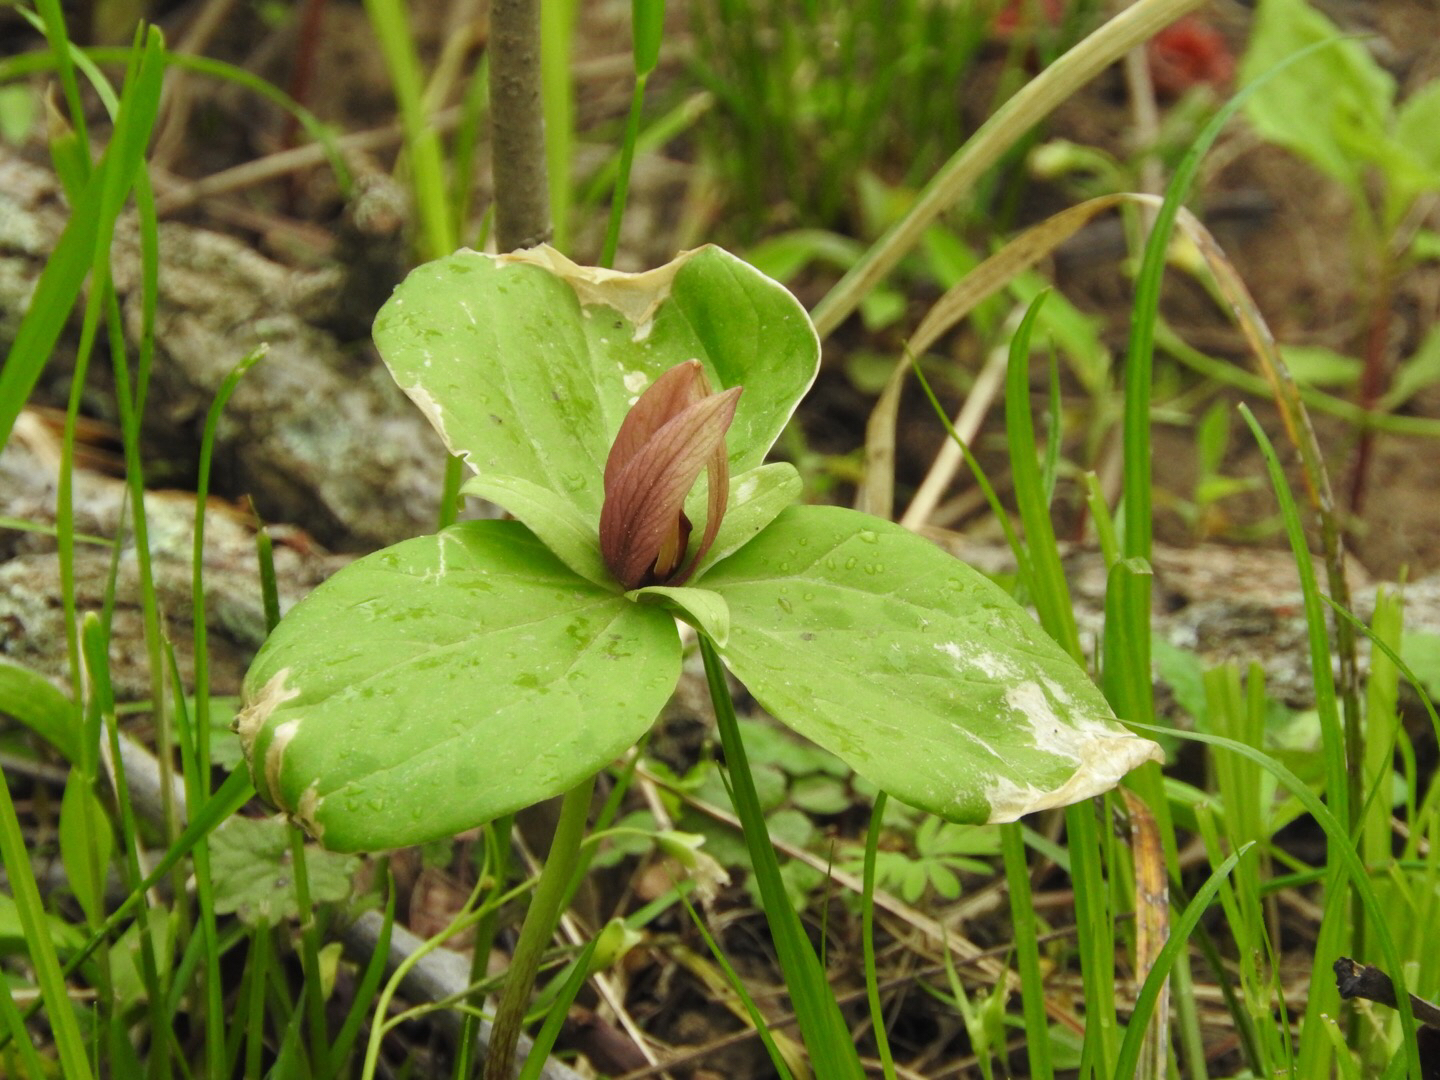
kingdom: Plantae
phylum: Tracheophyta
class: Liliopsida
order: Liliales
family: Melanthiaceae
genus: Trillium
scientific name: Trillium sessile
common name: Sessile trillium
